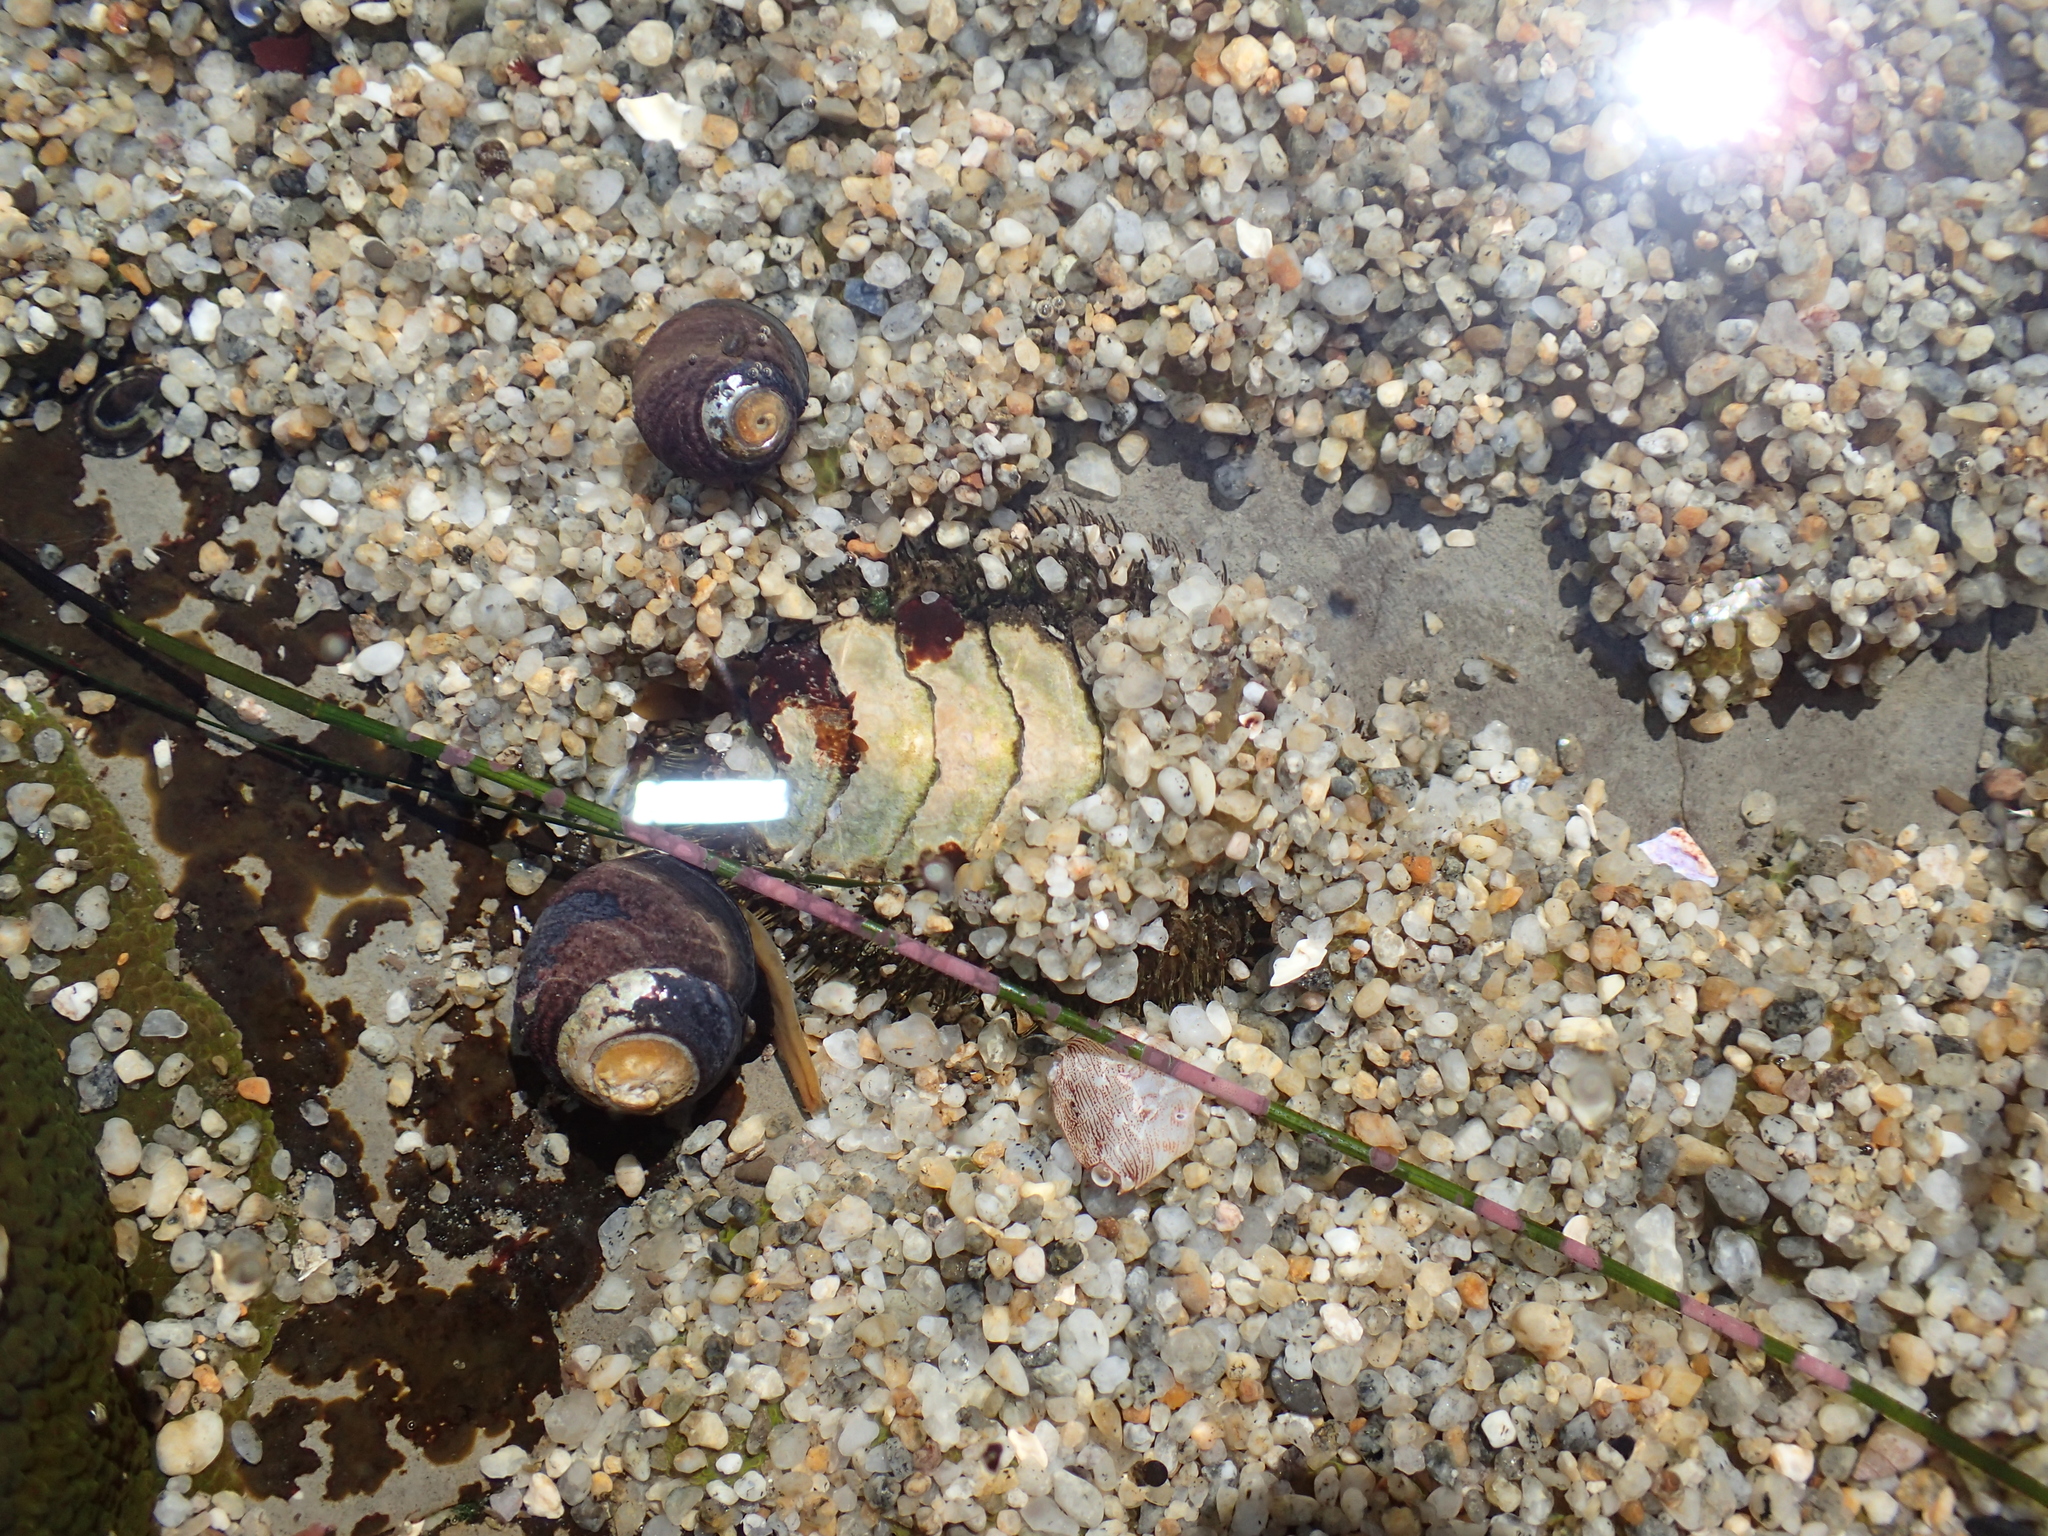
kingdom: Animalia
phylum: Mollusca
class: Polyplacophora
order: Chitonida
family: Mopaliidae
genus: Mopalia
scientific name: Mopalia muscosa
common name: Mossy chiton
